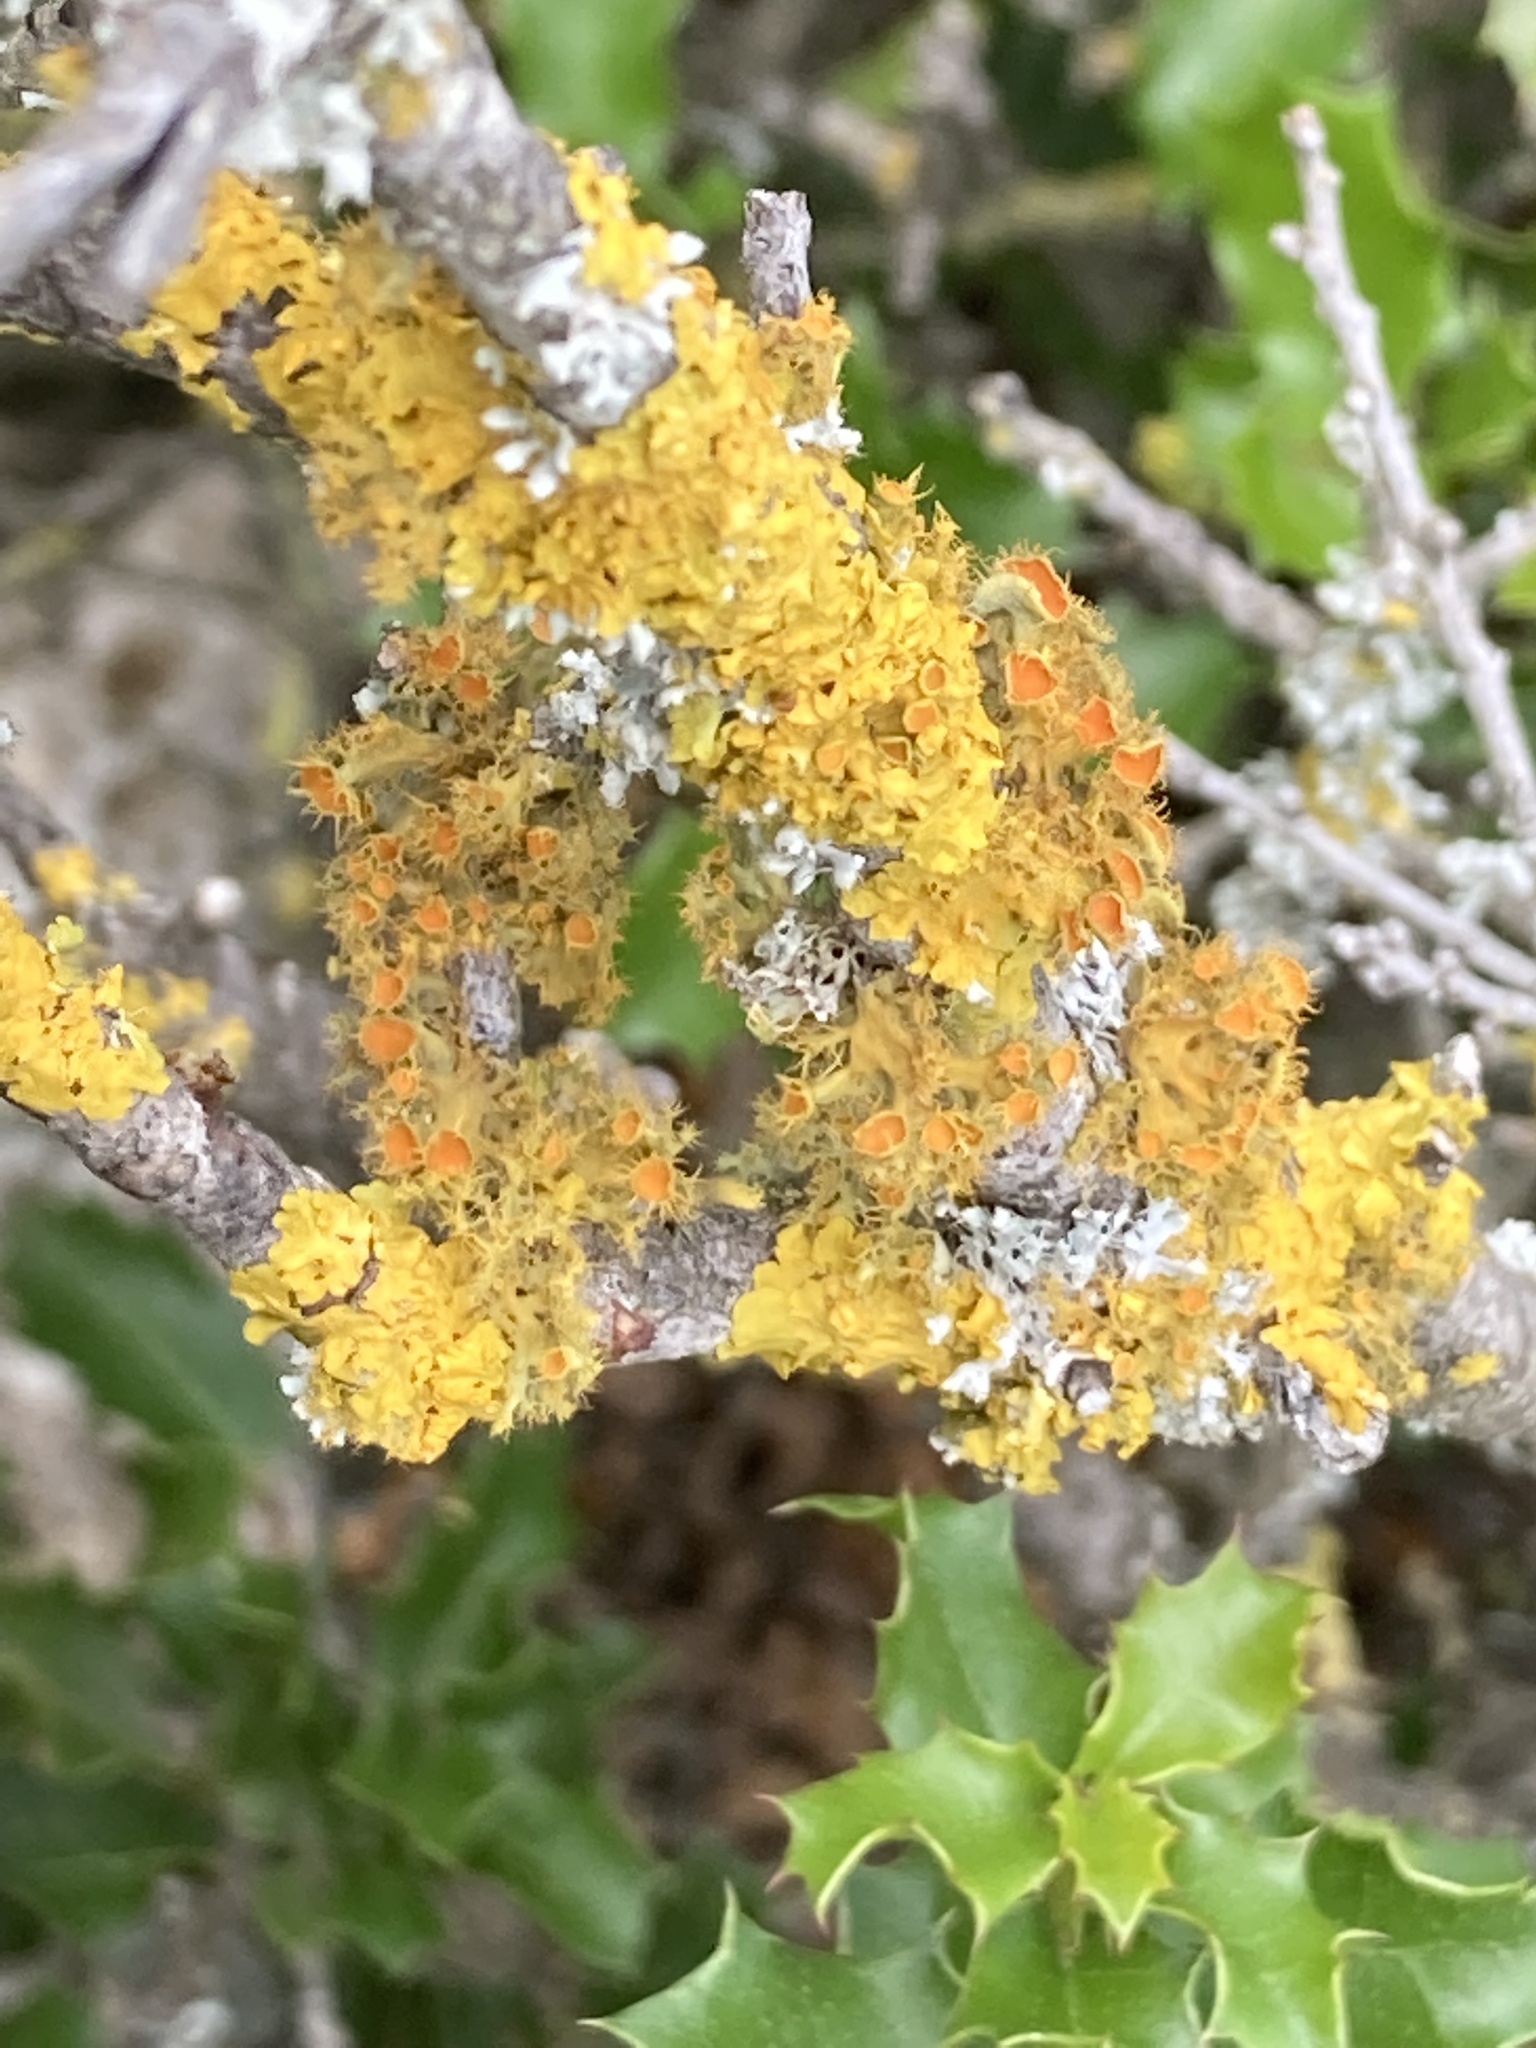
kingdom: Fungi
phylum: Ascomycota
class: Lecanoromycetes
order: Teloschistales
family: Teloschistaceae
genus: Niorma
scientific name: Niorma chrysophthalma
